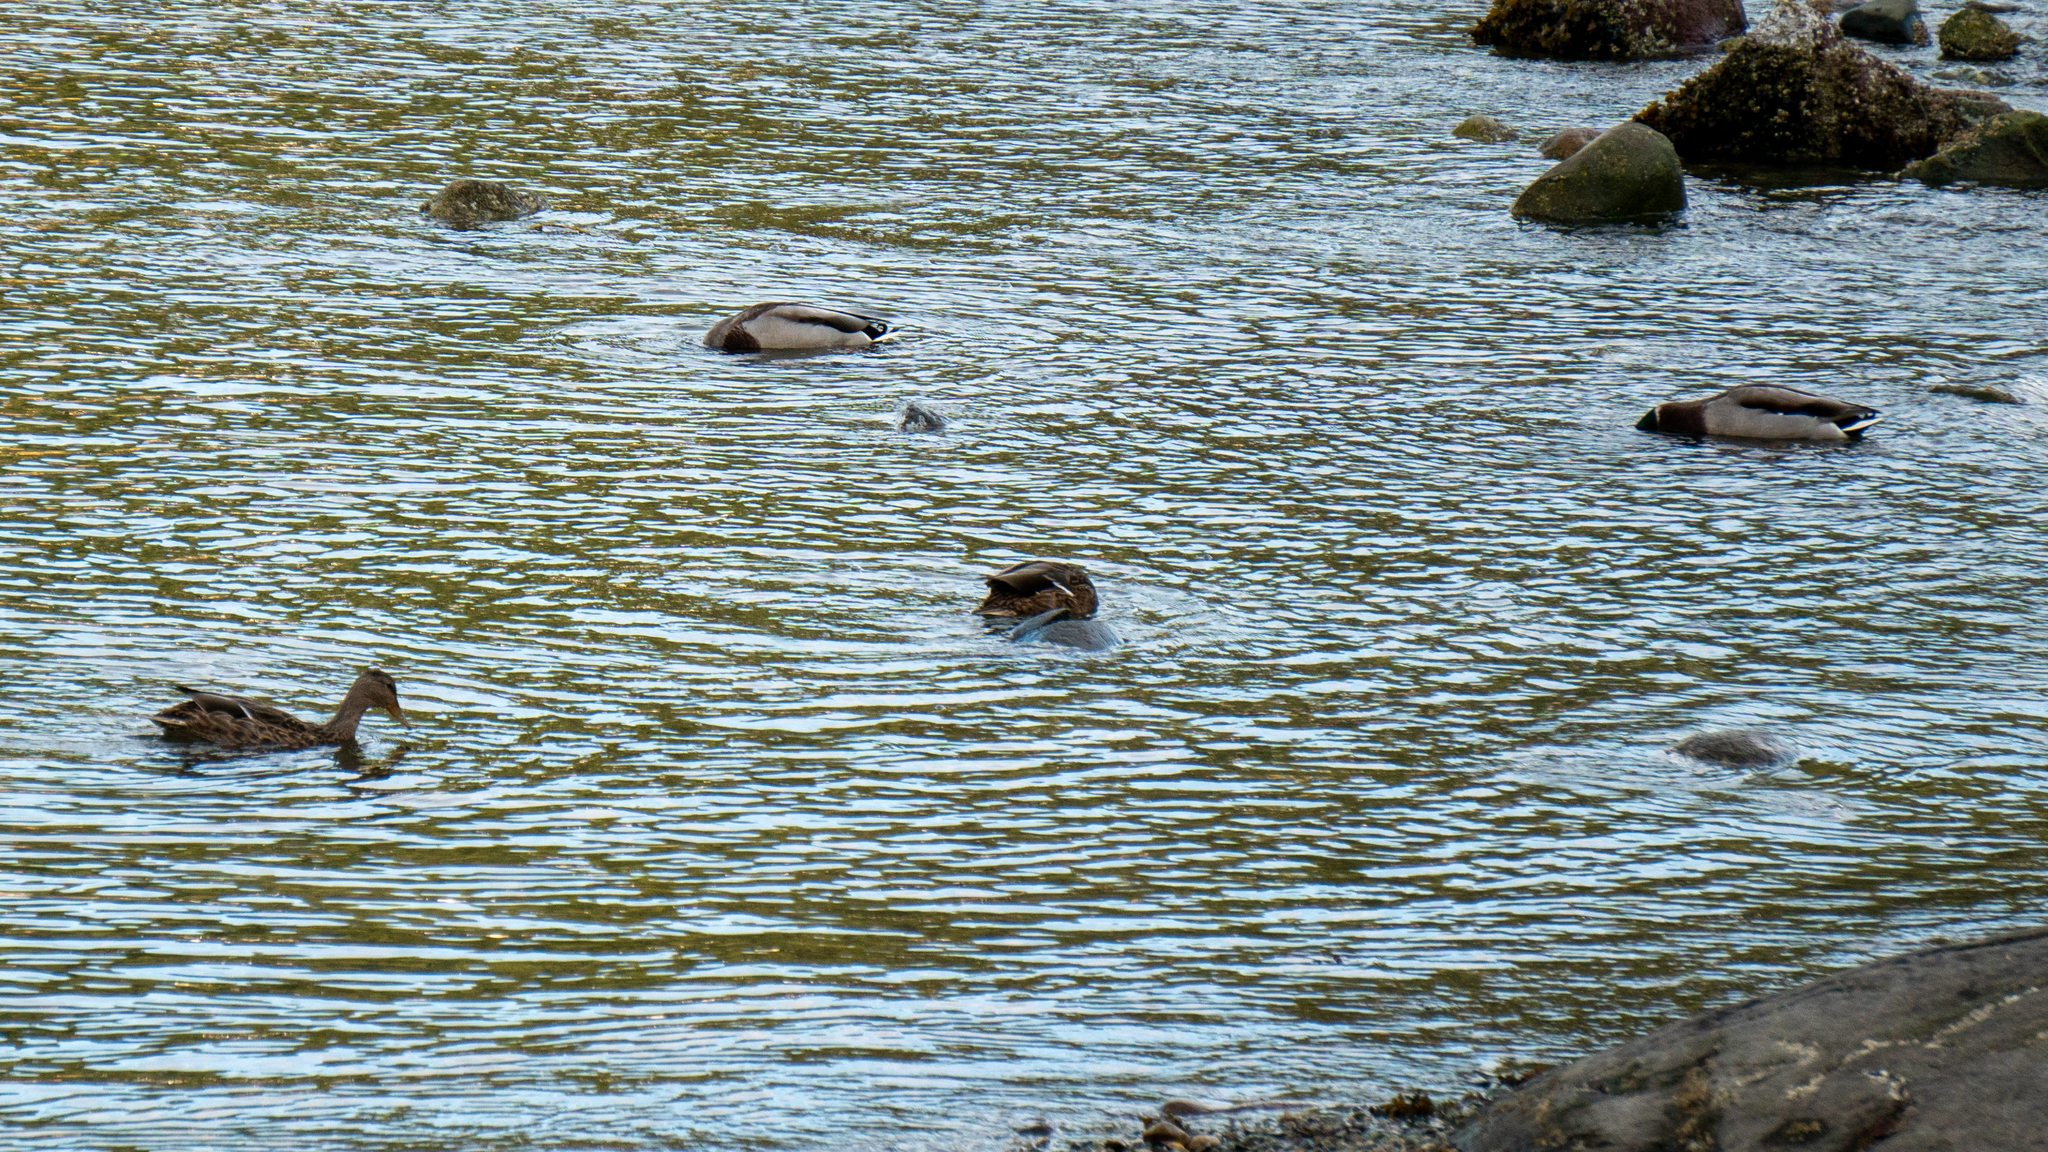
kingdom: Animalia
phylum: Chordata
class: Aves
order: Anseriformes
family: Anatidae
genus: Anas
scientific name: Anas platyrhynchos
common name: Mallard
